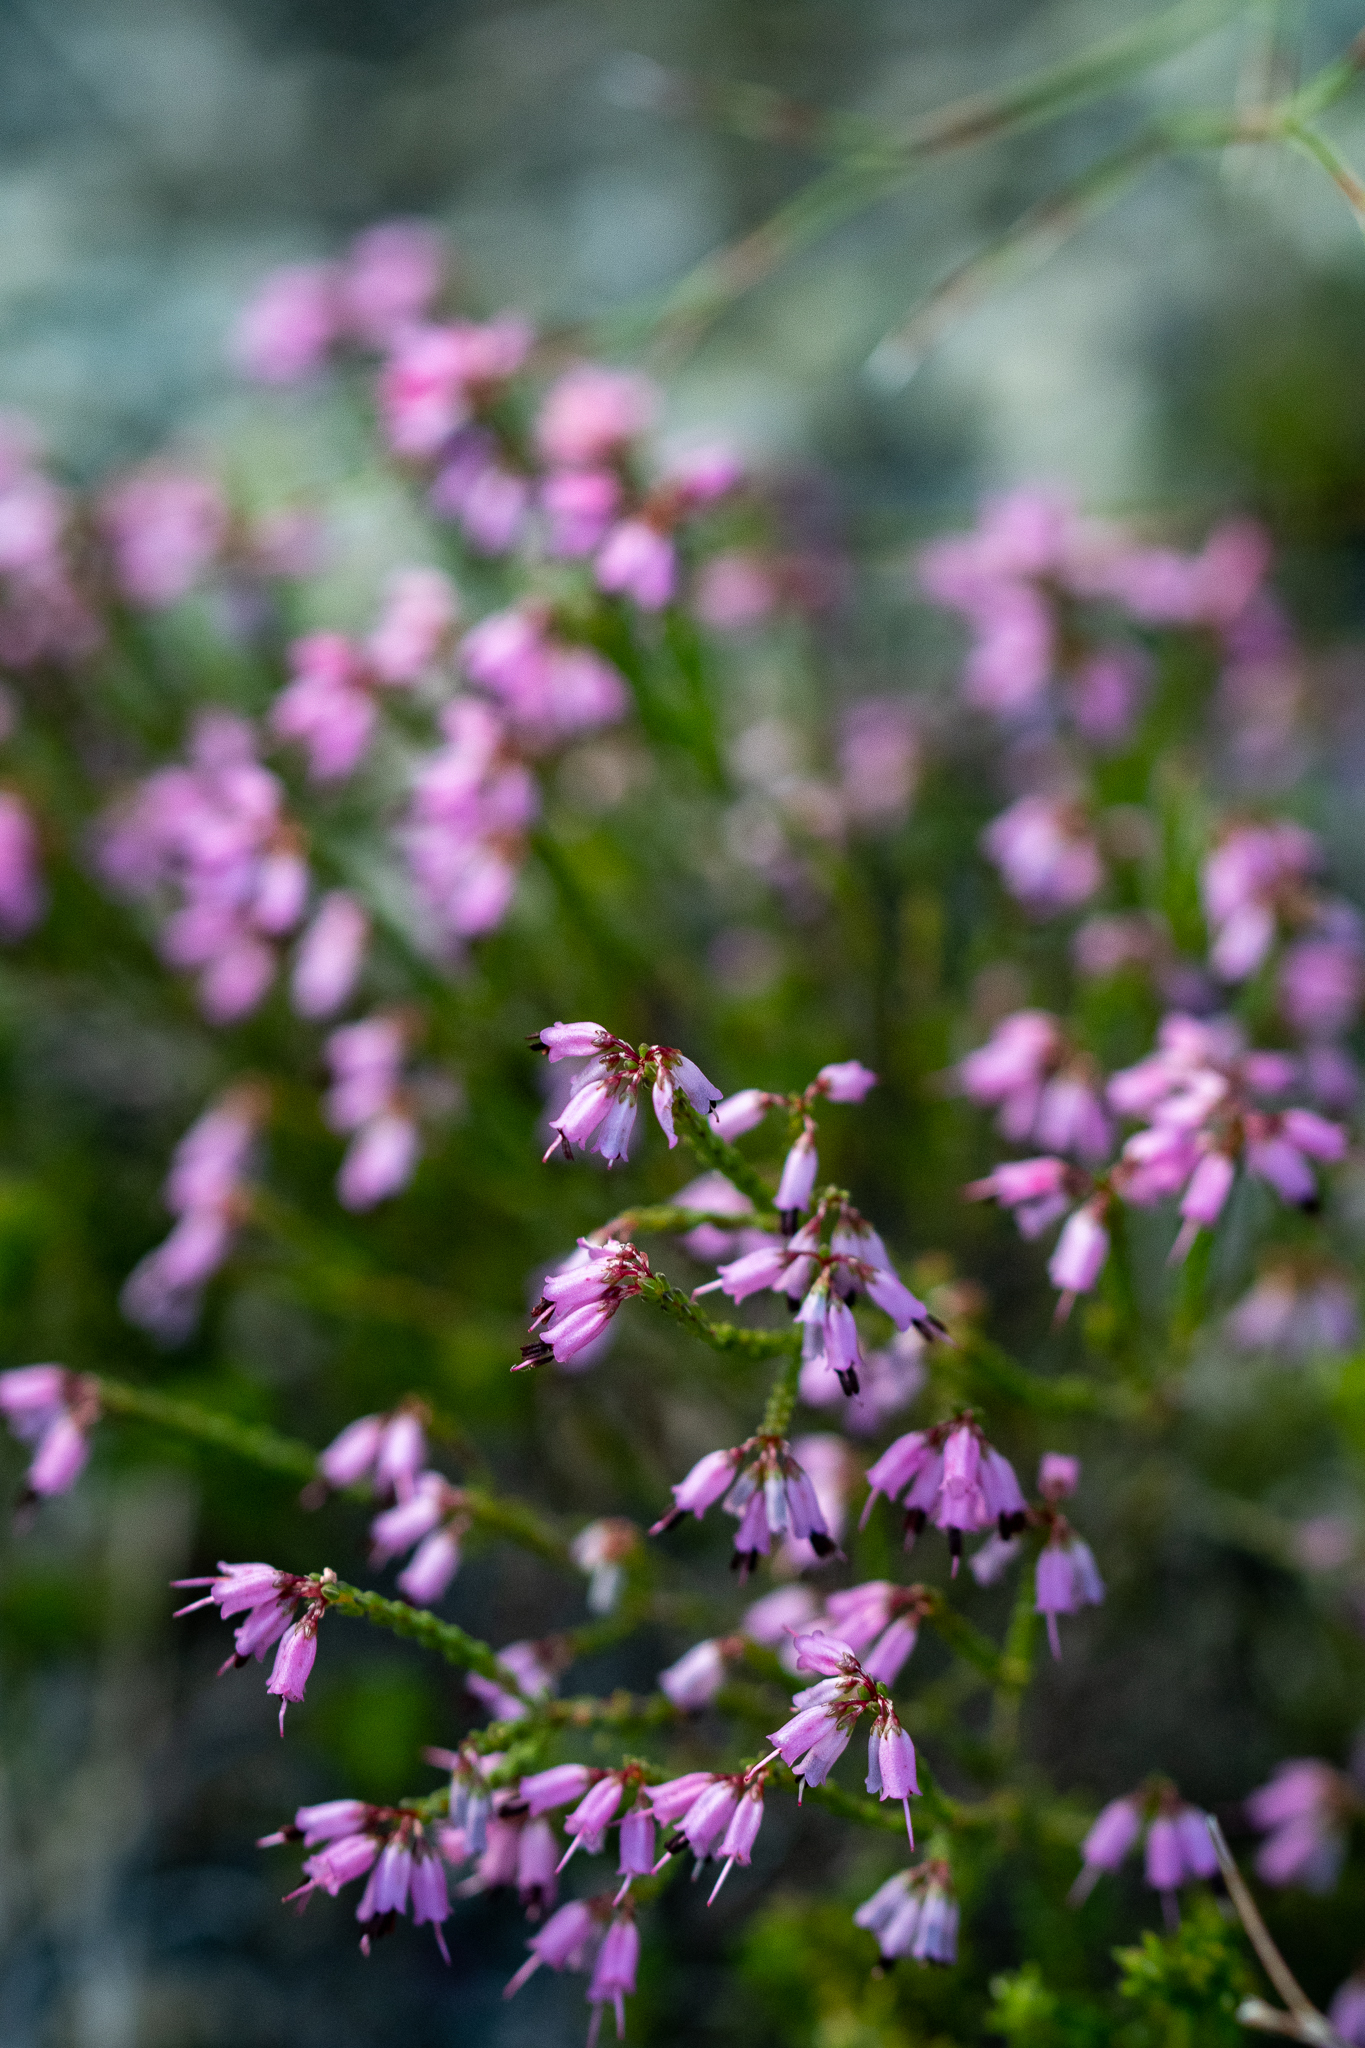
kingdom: Plantae
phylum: Tracheophyta
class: Magnoliopsida
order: Ericales
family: Ericaceae
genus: Erica
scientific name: Erica equisetifolia
